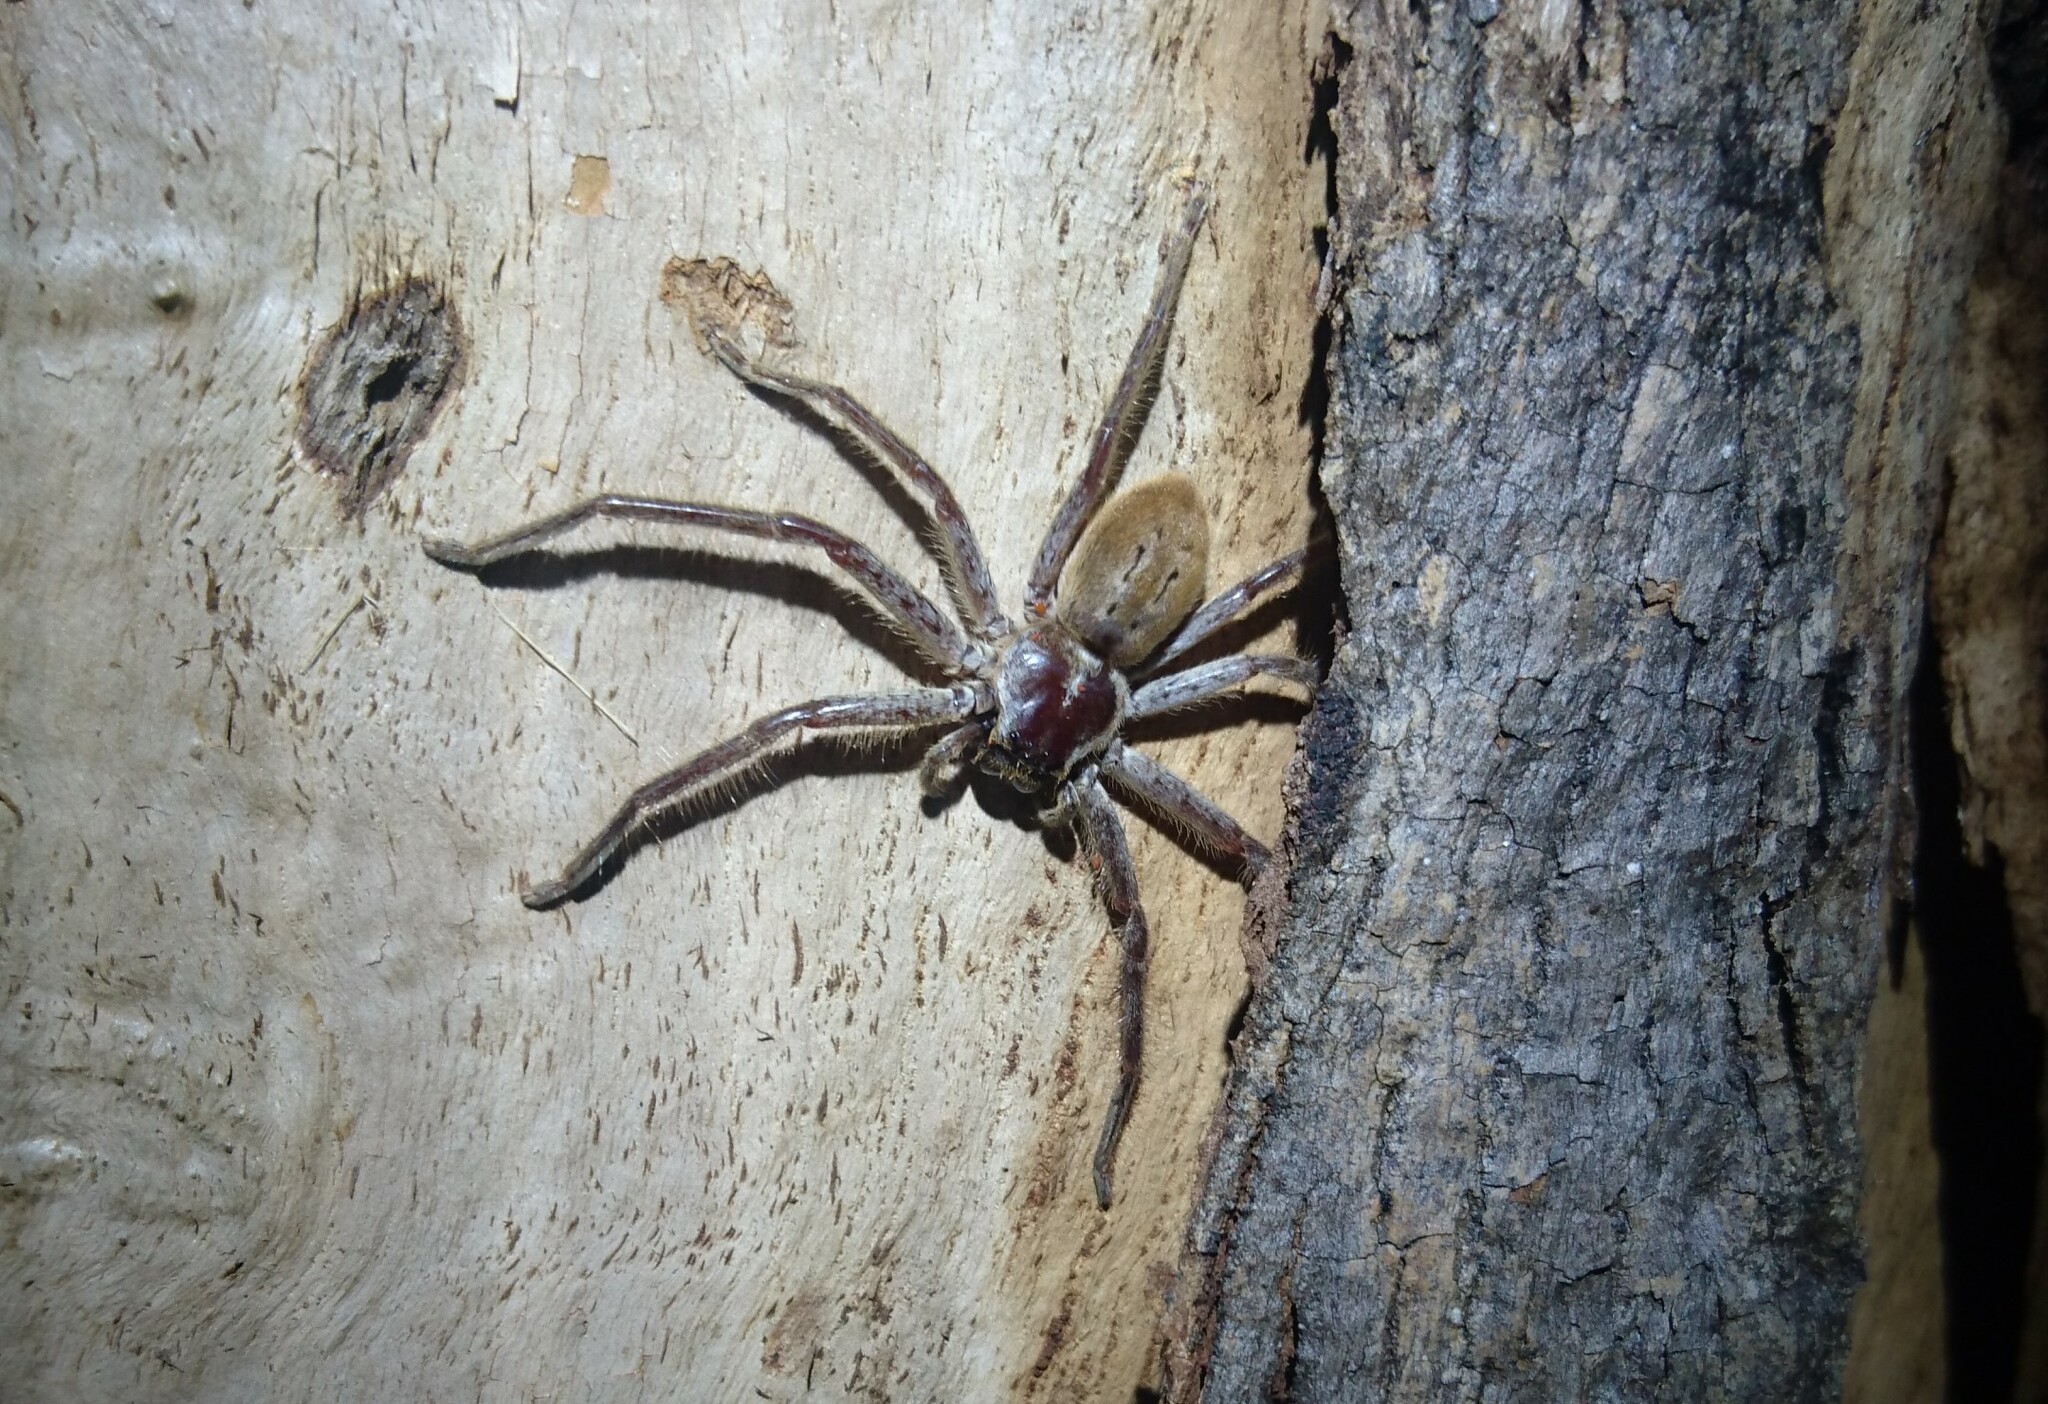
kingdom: Animalia
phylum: Arthropoda
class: Arachnida
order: Araneae
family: Sparassidae
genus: Isopeda
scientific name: Isopeda montana
